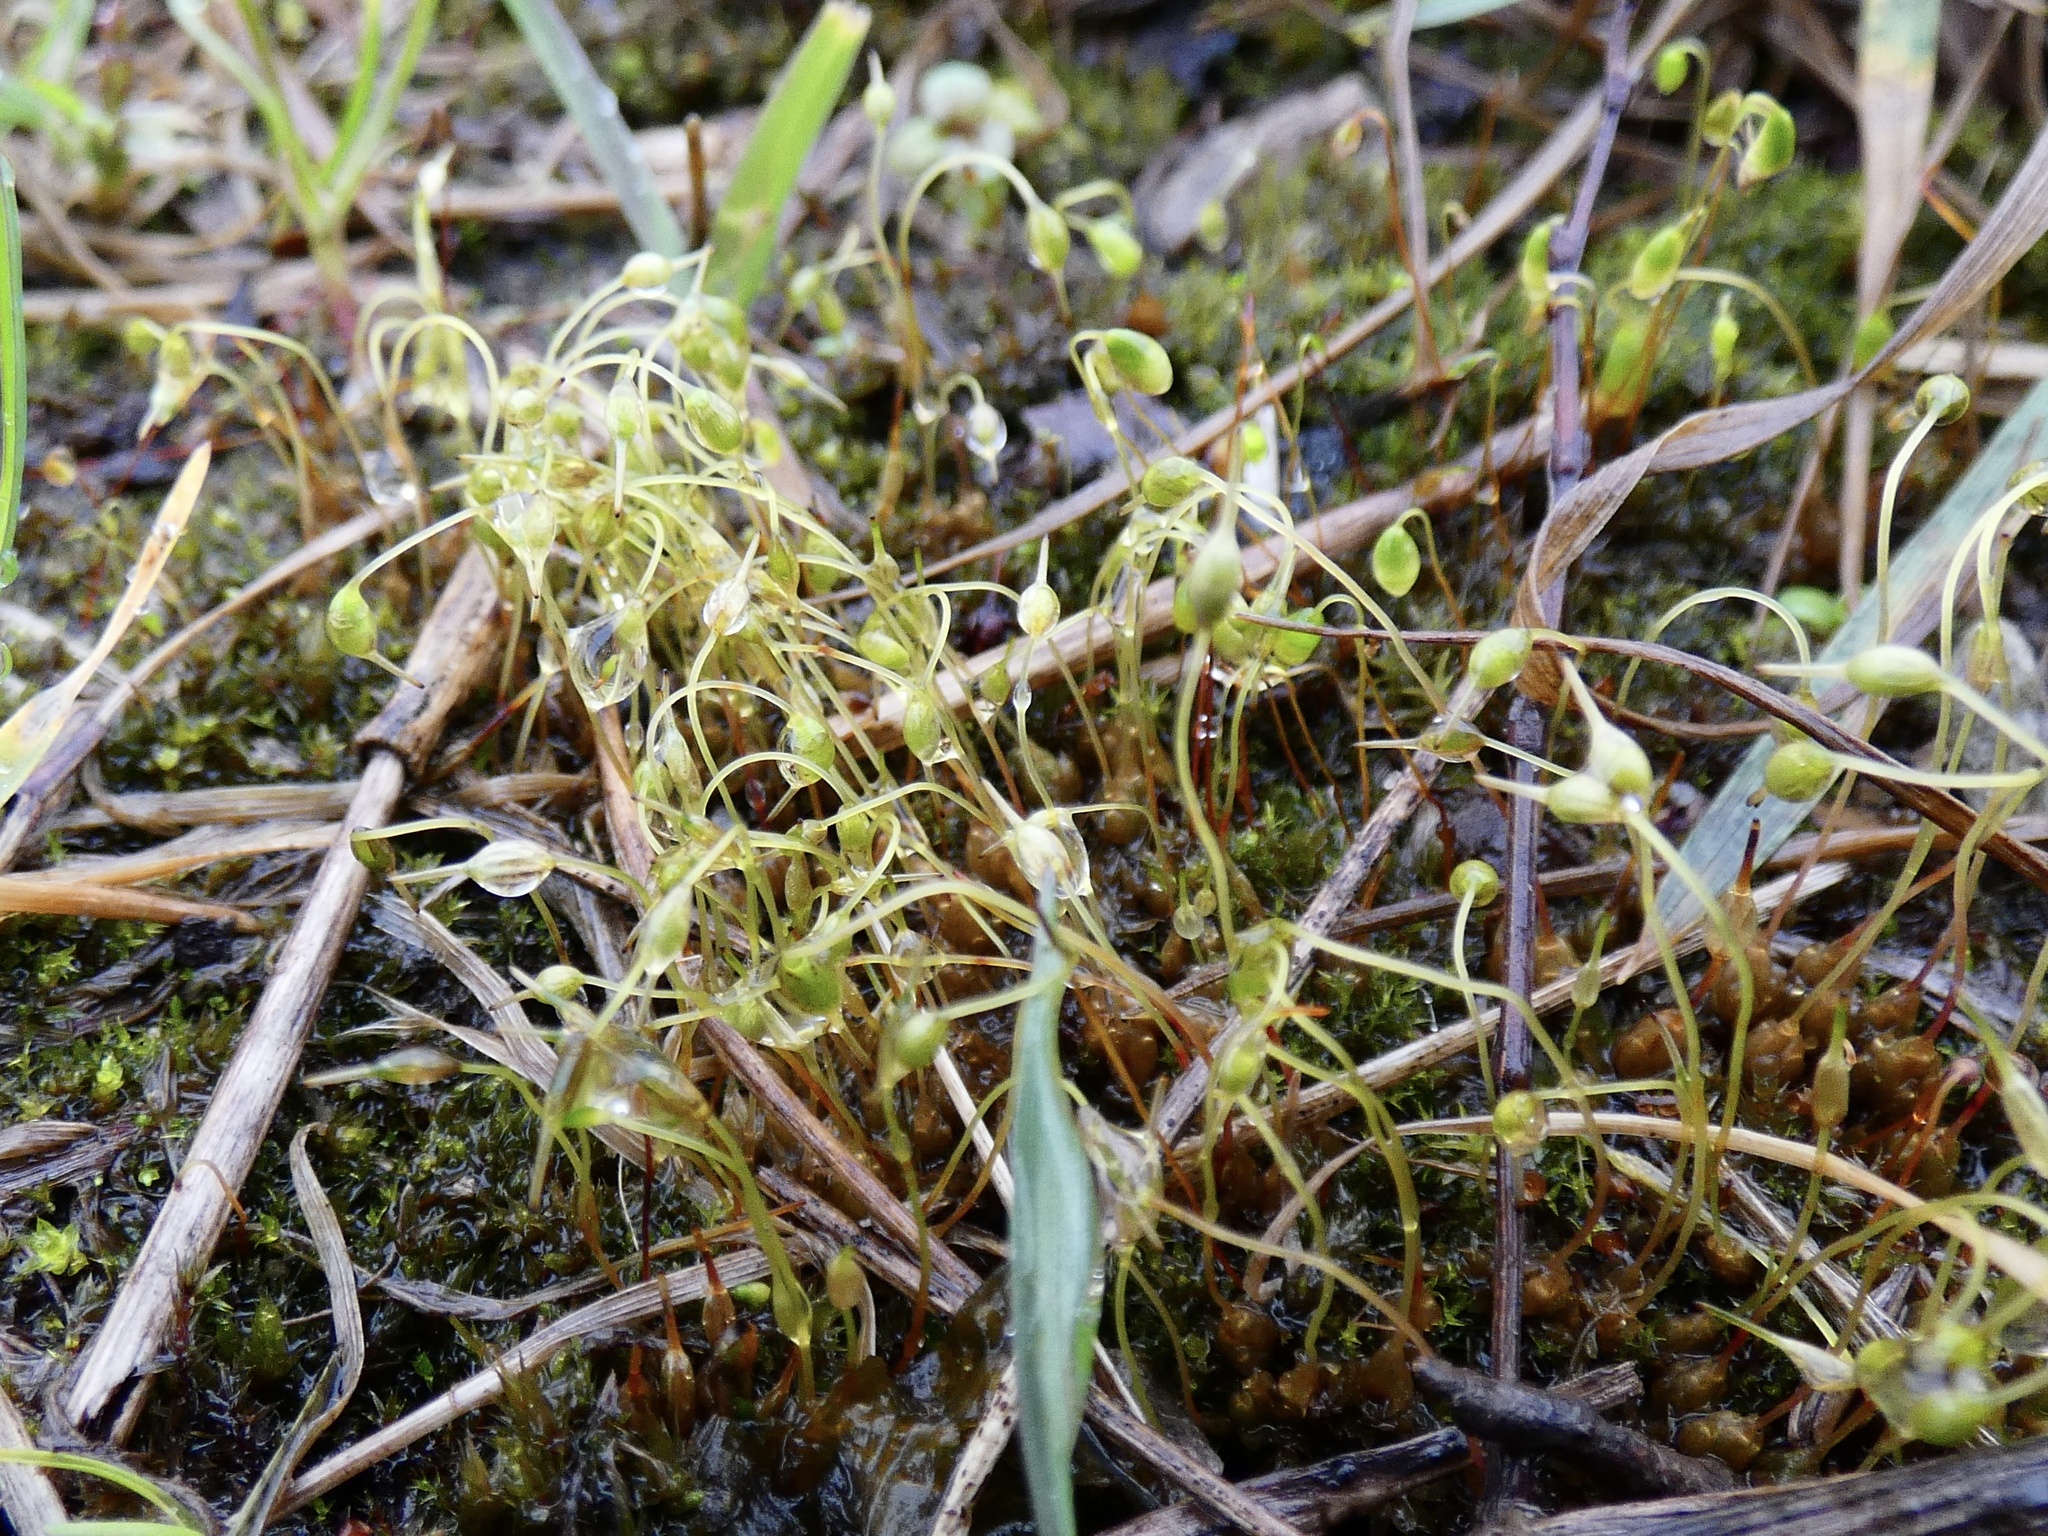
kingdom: Plantae
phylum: Bryophyta
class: Bryopsida
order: Funariales
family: Funariaceae
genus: Funaria
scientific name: Funaria hygrometrica
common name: Common cord moss
